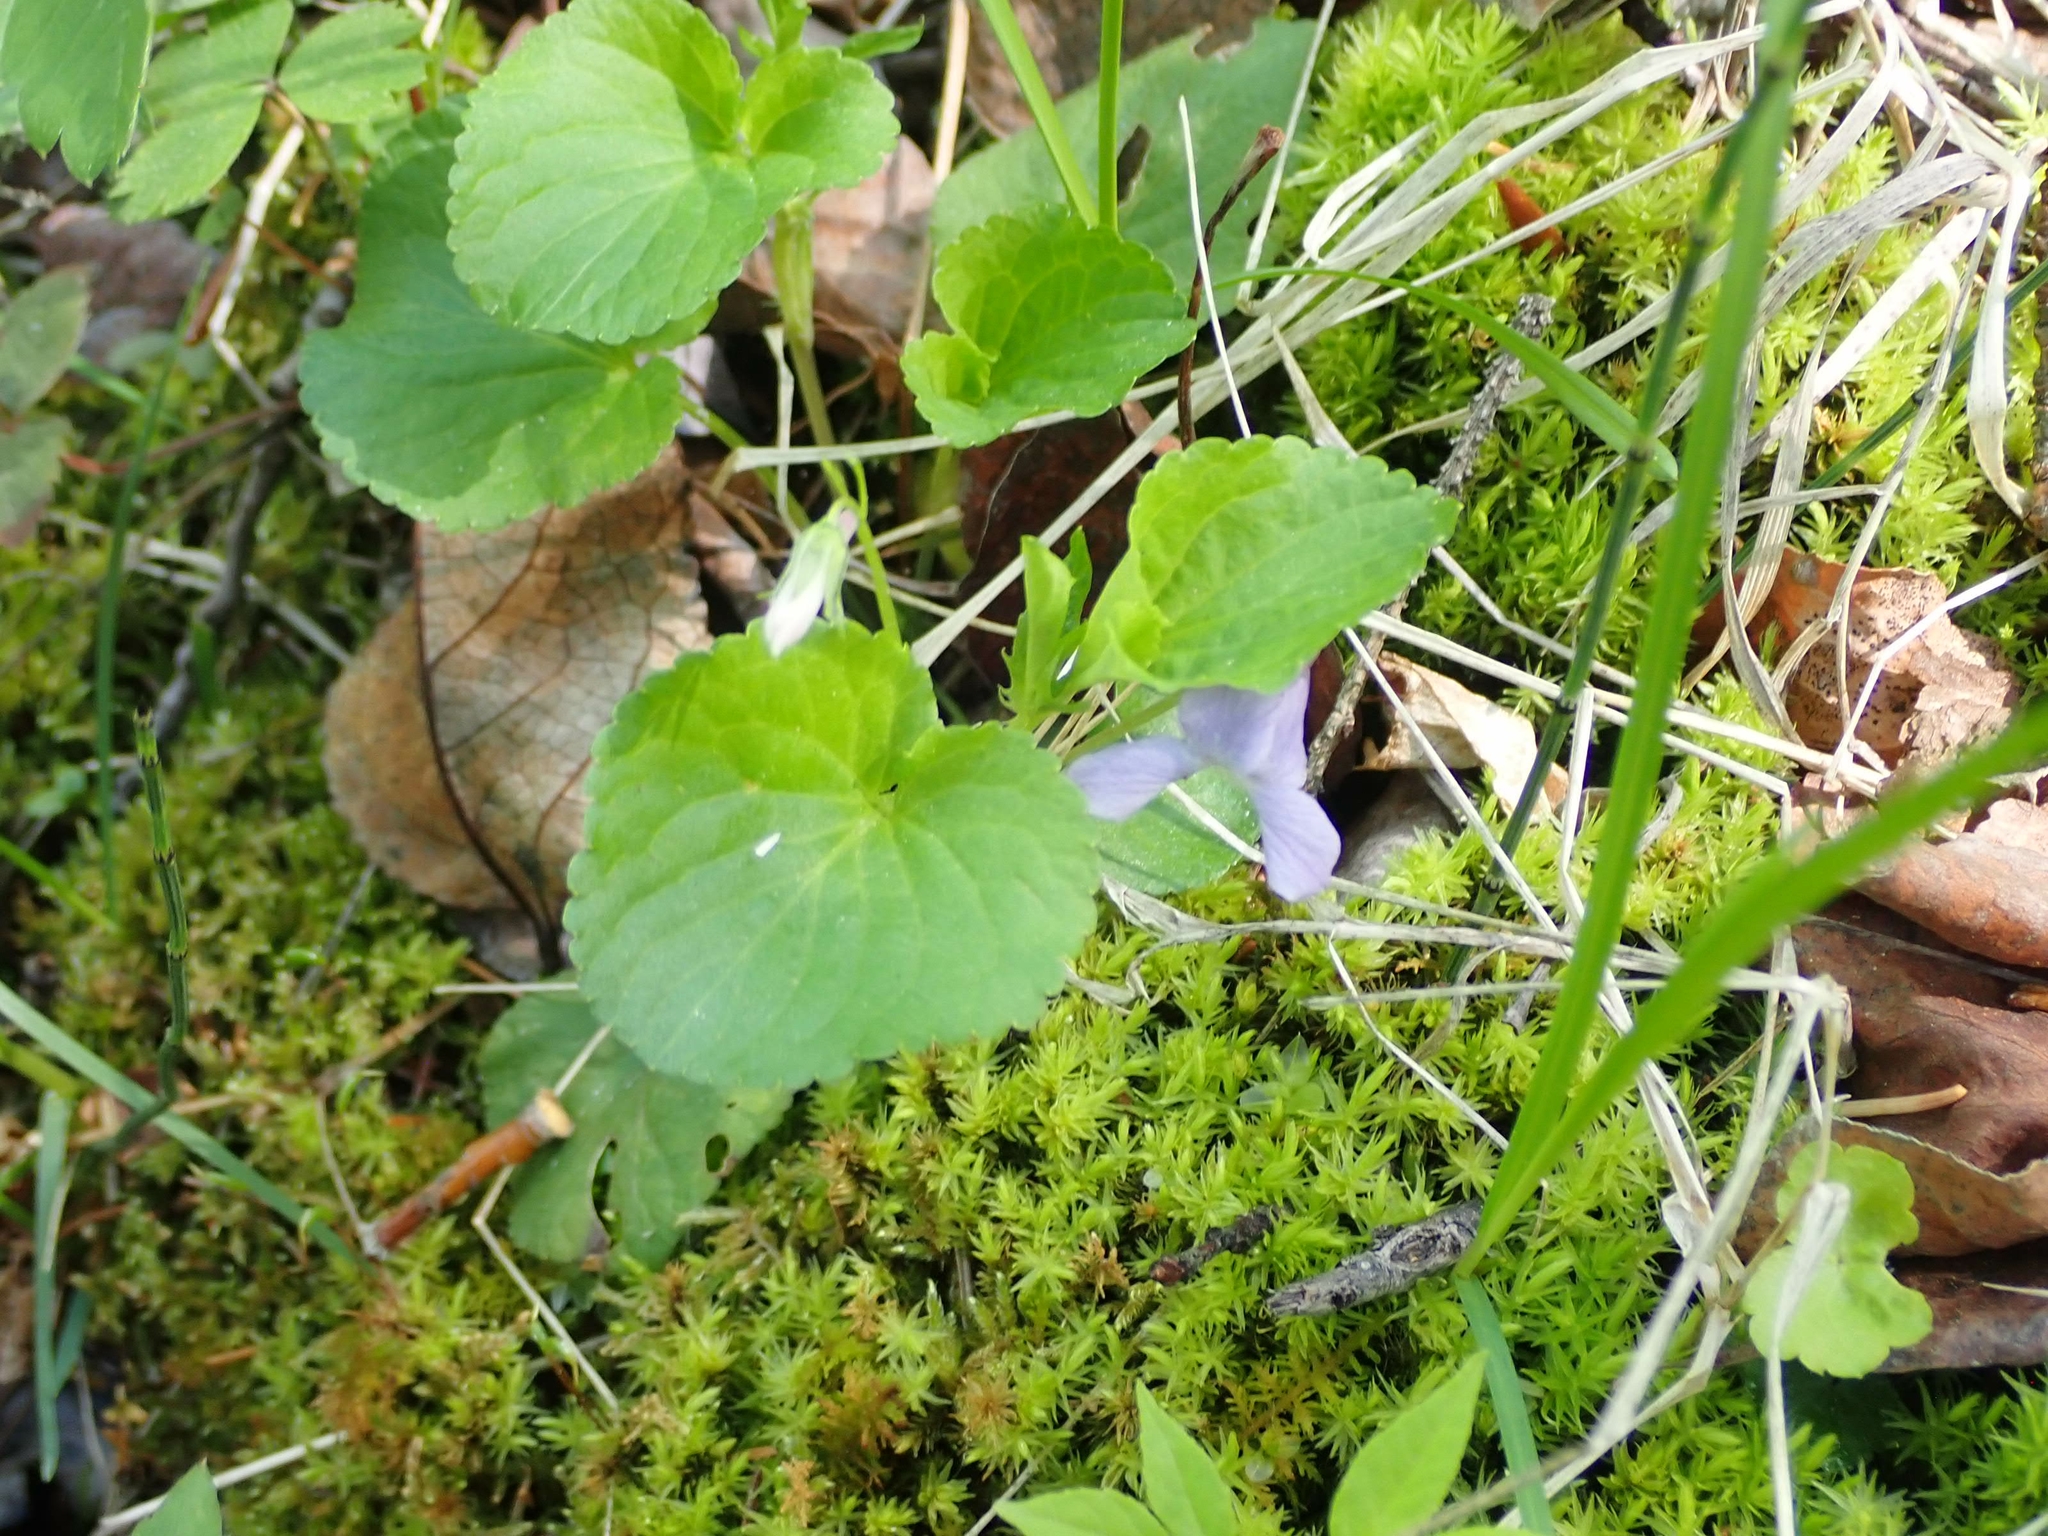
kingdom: Plantae
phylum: Tracheophyta
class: Magnoliopsida
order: Malpighiales
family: Violaceae
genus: Viola
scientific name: Viola labradorica
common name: Labrador violet
